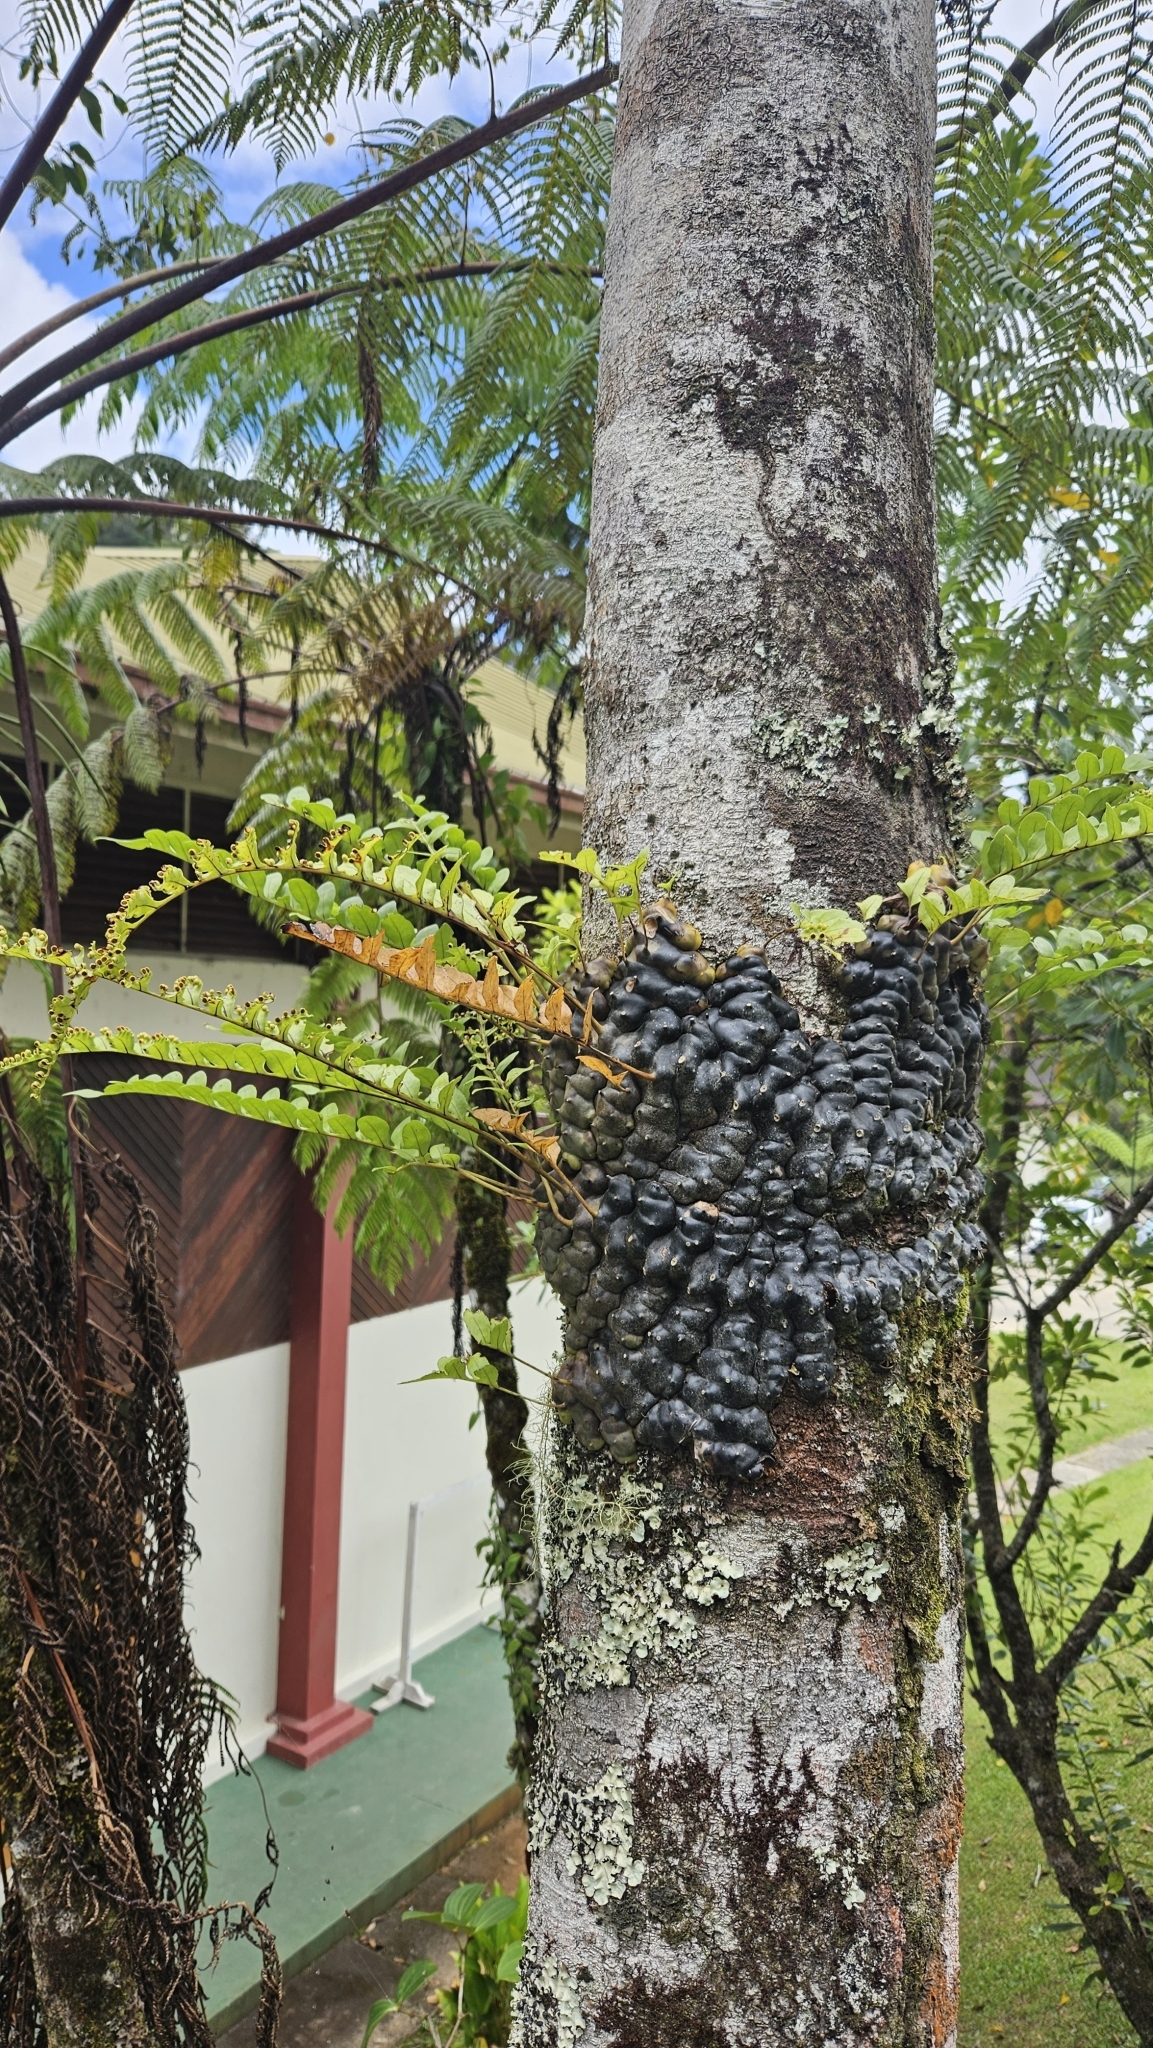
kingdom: Plantae
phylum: Tracheophyta
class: Polypodiopsida
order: Polypodiales
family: Polypodiaceae
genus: Lecanopteris
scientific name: Lecanopteris pumila
